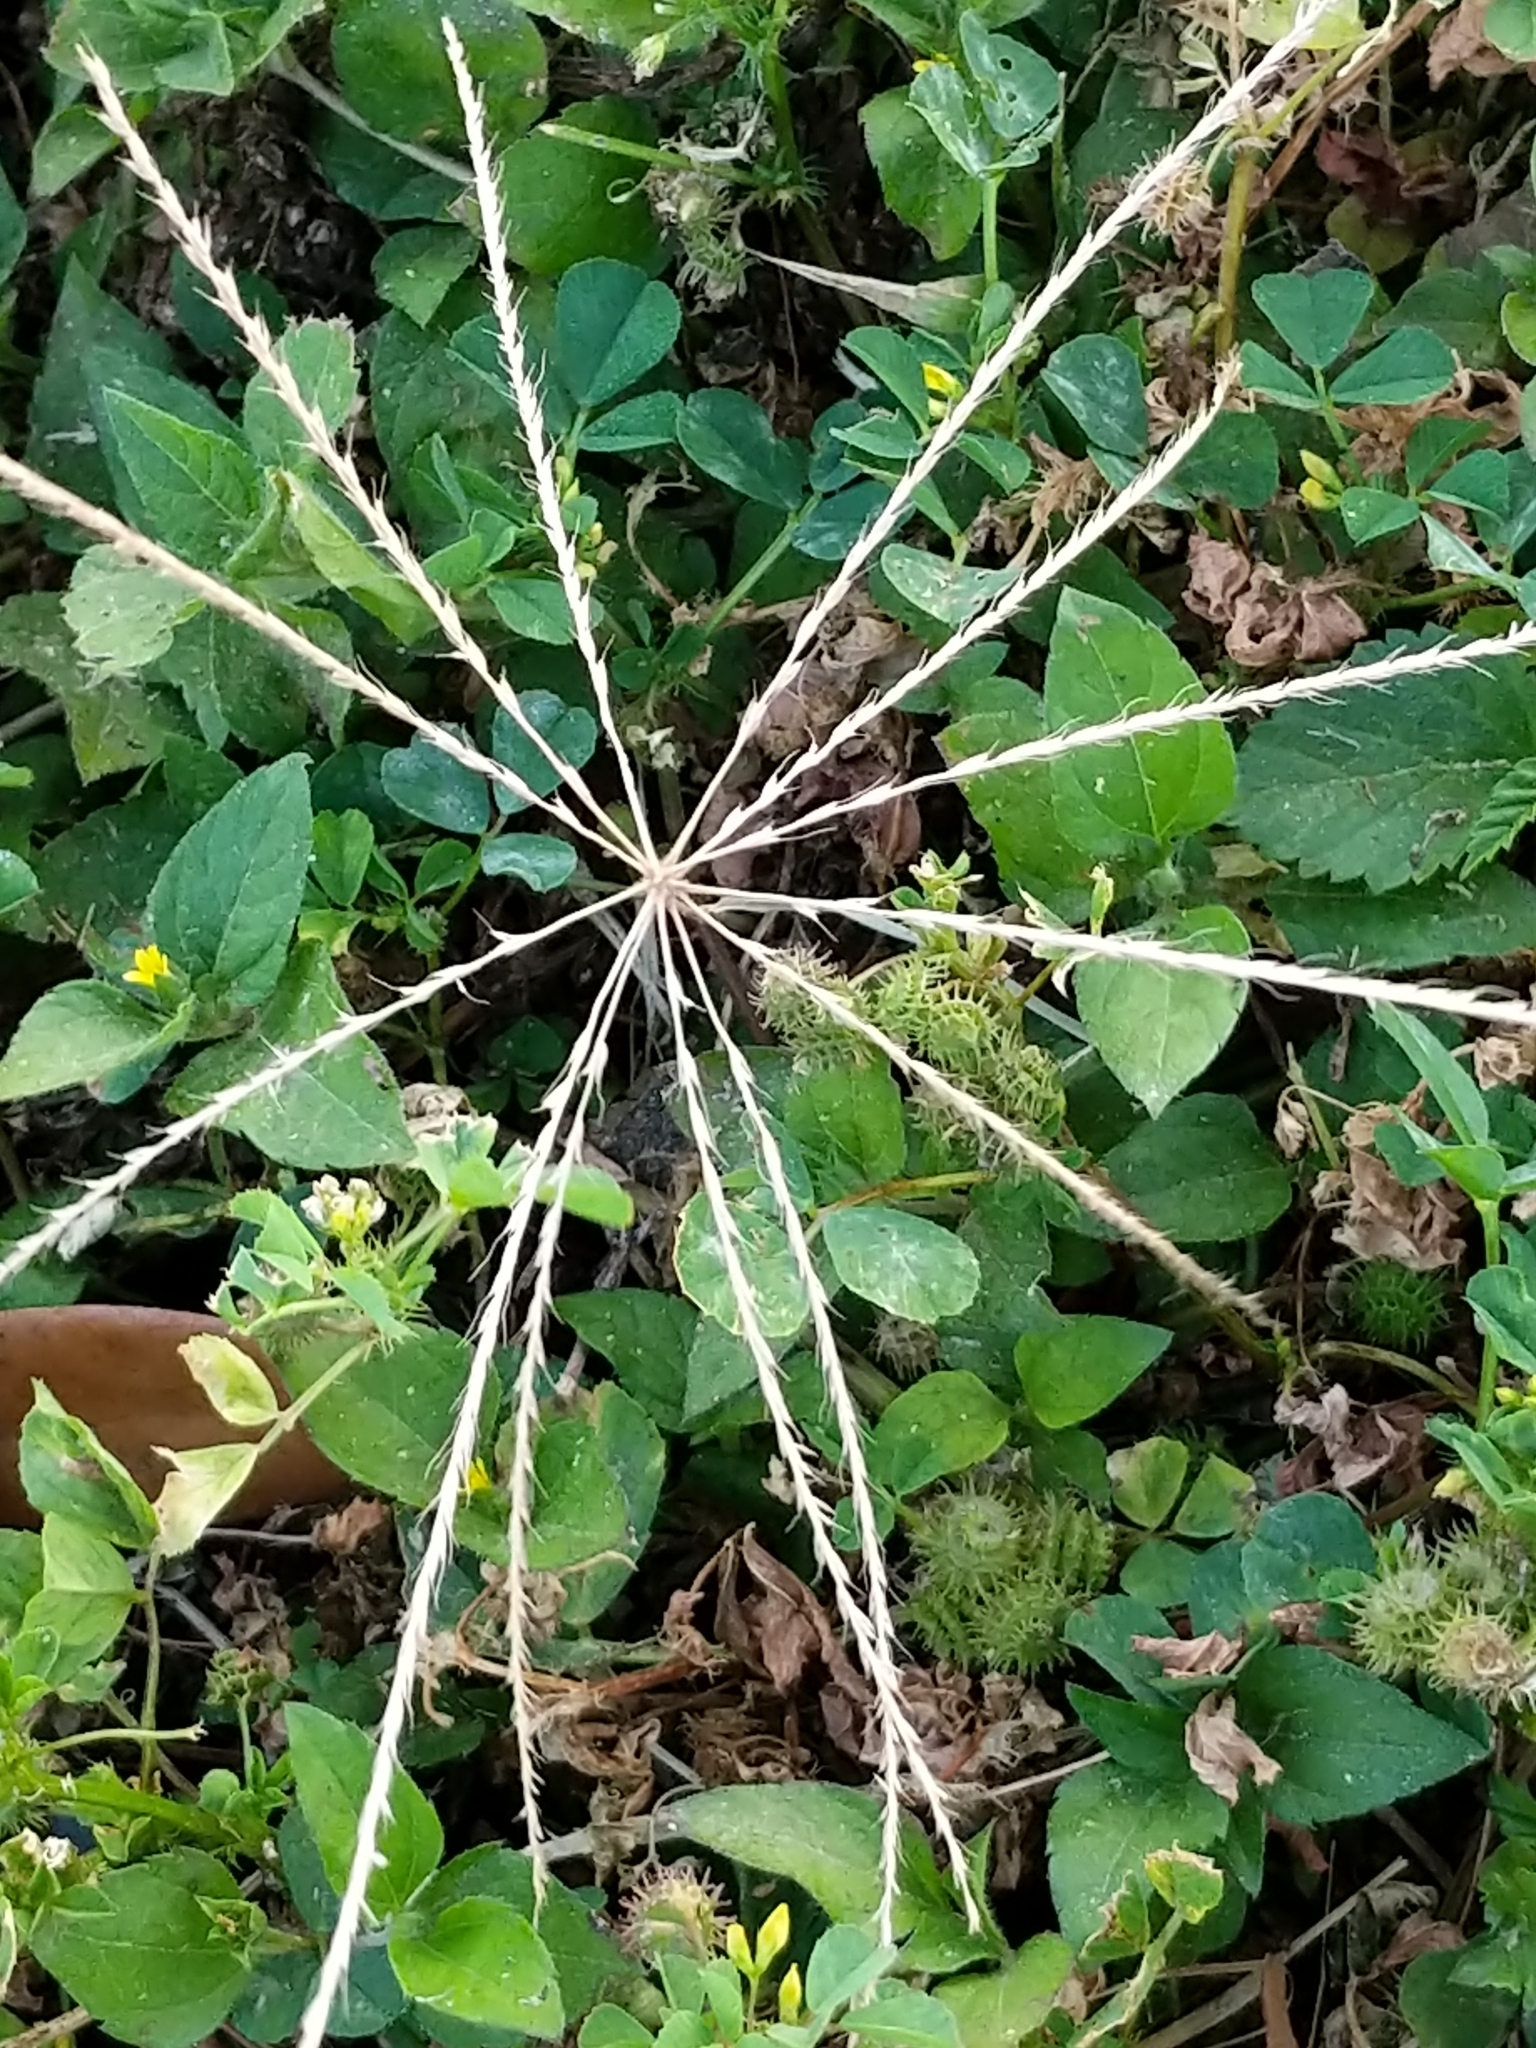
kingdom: Plantae
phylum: Tracheophyta
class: Liliopsida
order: Poales
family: Poaceae
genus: Chloris
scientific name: Chloris andropogonoides
